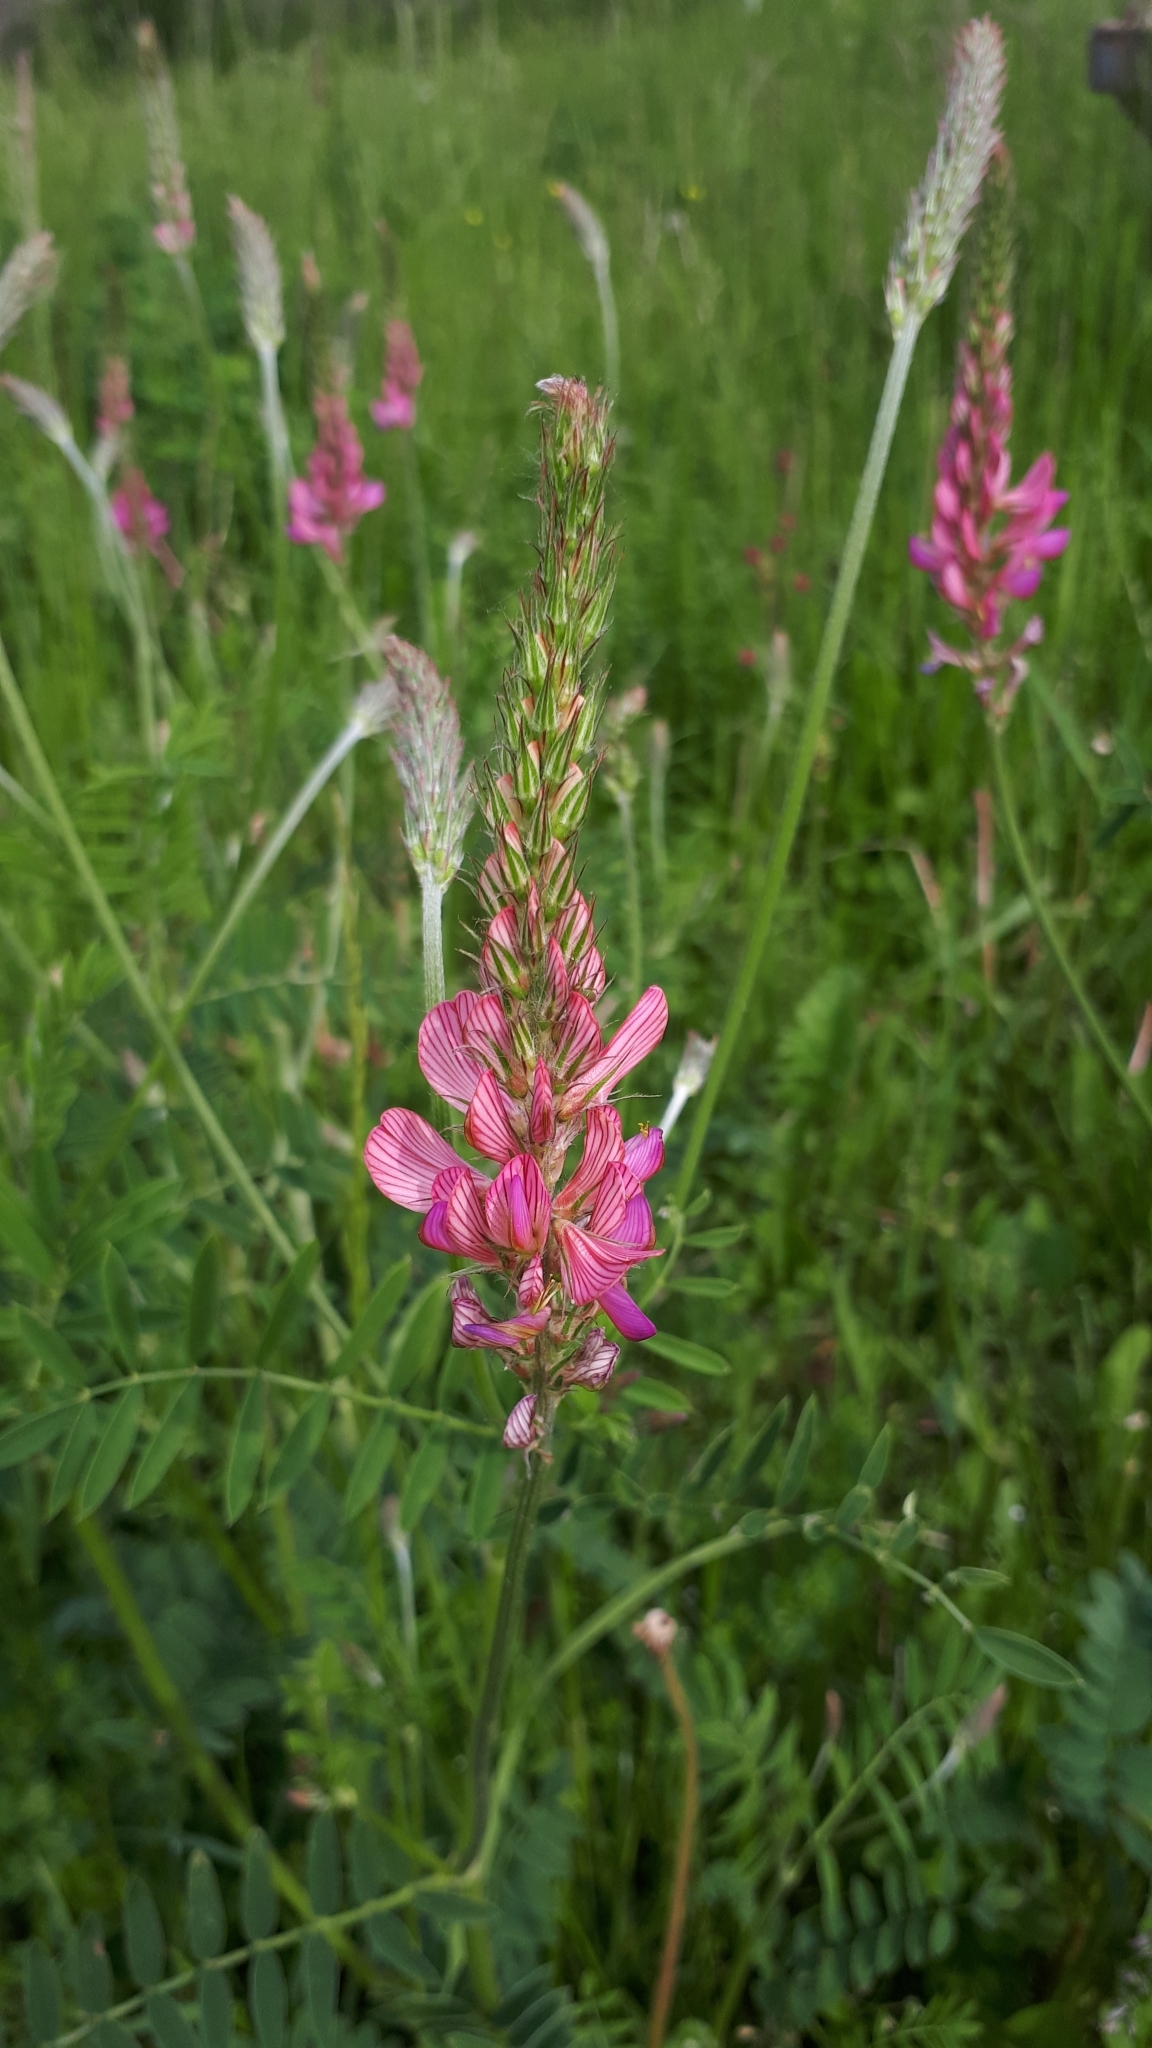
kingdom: Plantae
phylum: Tracheophyta
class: Magnoliopsida
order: Fabales
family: Fabaceae
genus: Onobrychis
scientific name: Onobrychis viciifolia
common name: Sainfoin
